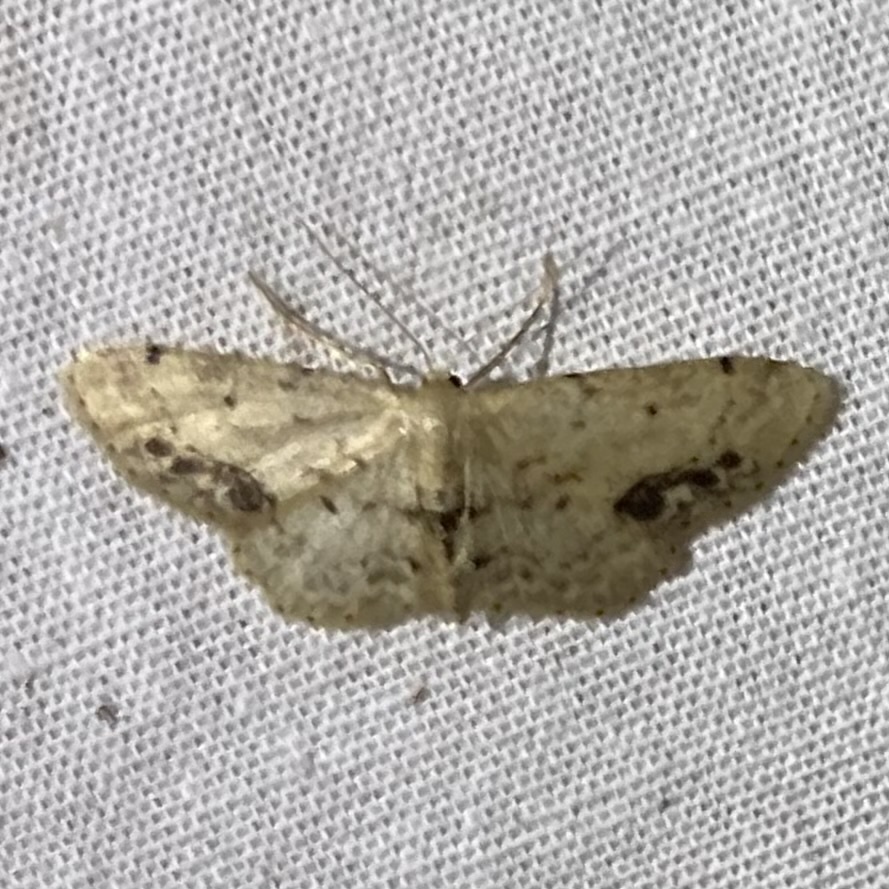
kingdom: Animalia
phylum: Arthropoda
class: Insecta
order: Lepidoptera
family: Geometridae
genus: Idaea
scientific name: Idaea dimidiata
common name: Single-dotted wave
